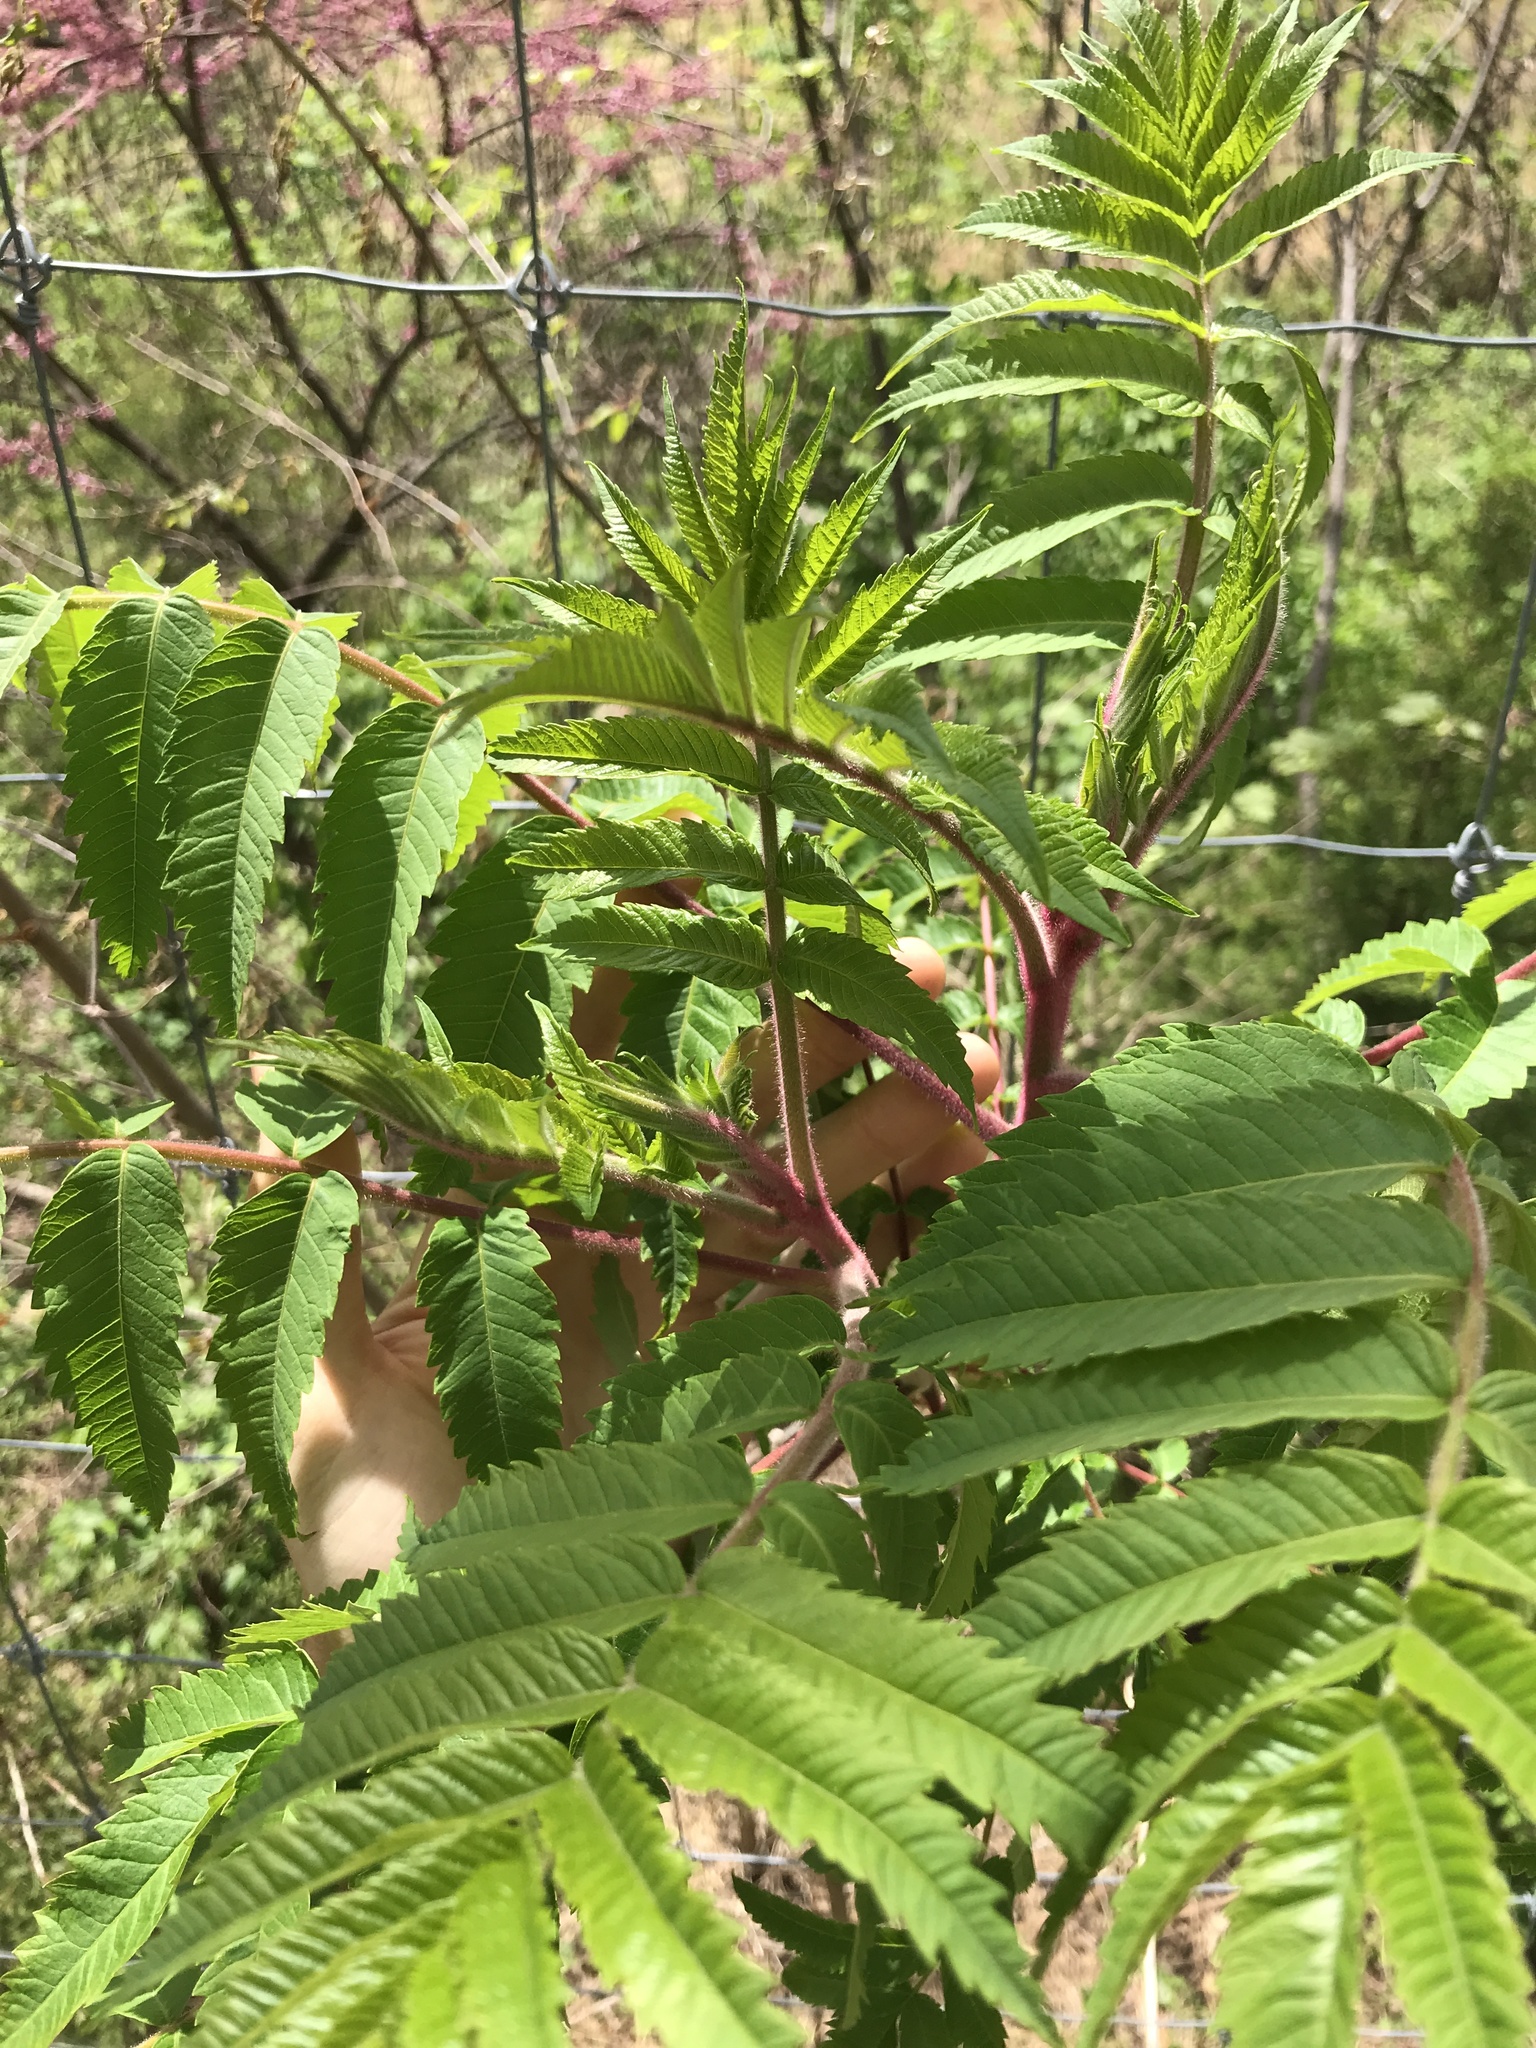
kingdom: Plantae
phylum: Tracheophyta
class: Magnoliopsida
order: Sapindales
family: Anacardiaceae
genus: Rhus
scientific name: Rhus typhina
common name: Staghorn sumac
